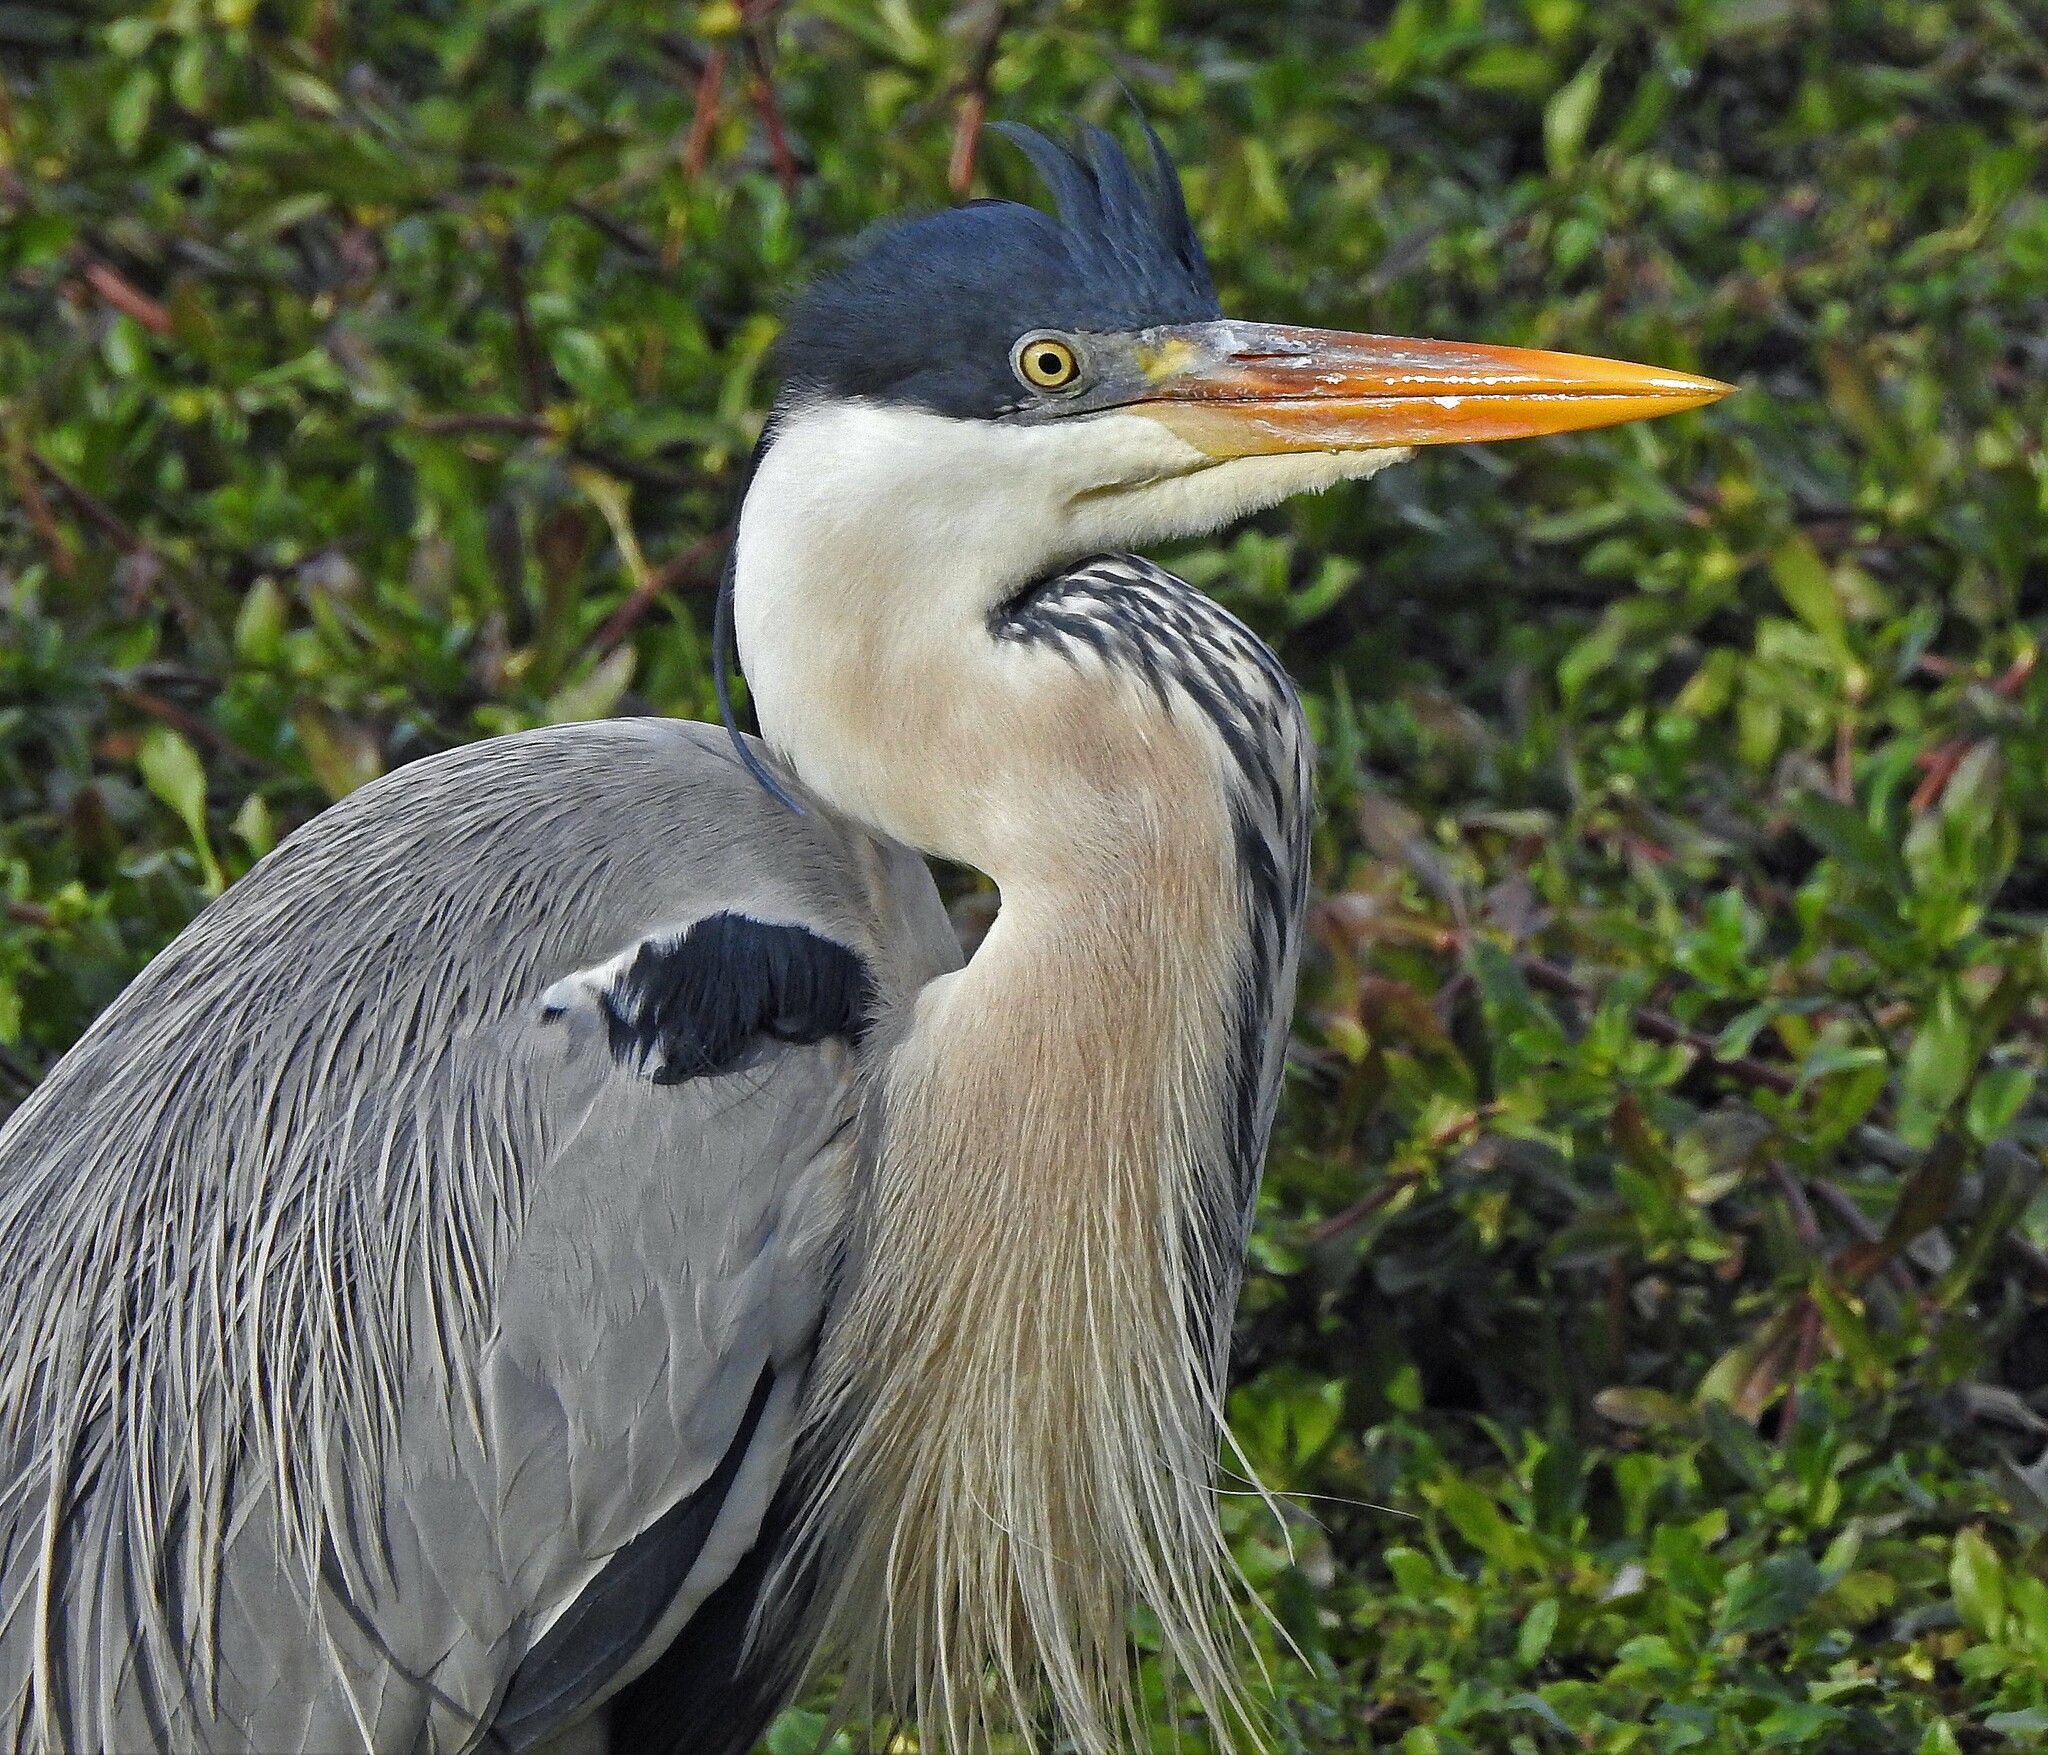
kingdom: Animalia
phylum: Chordata
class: Aves
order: Pelecaniformes
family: Ardeidae
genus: Ardea
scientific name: Ardea cocoi
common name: Cocoi heron
